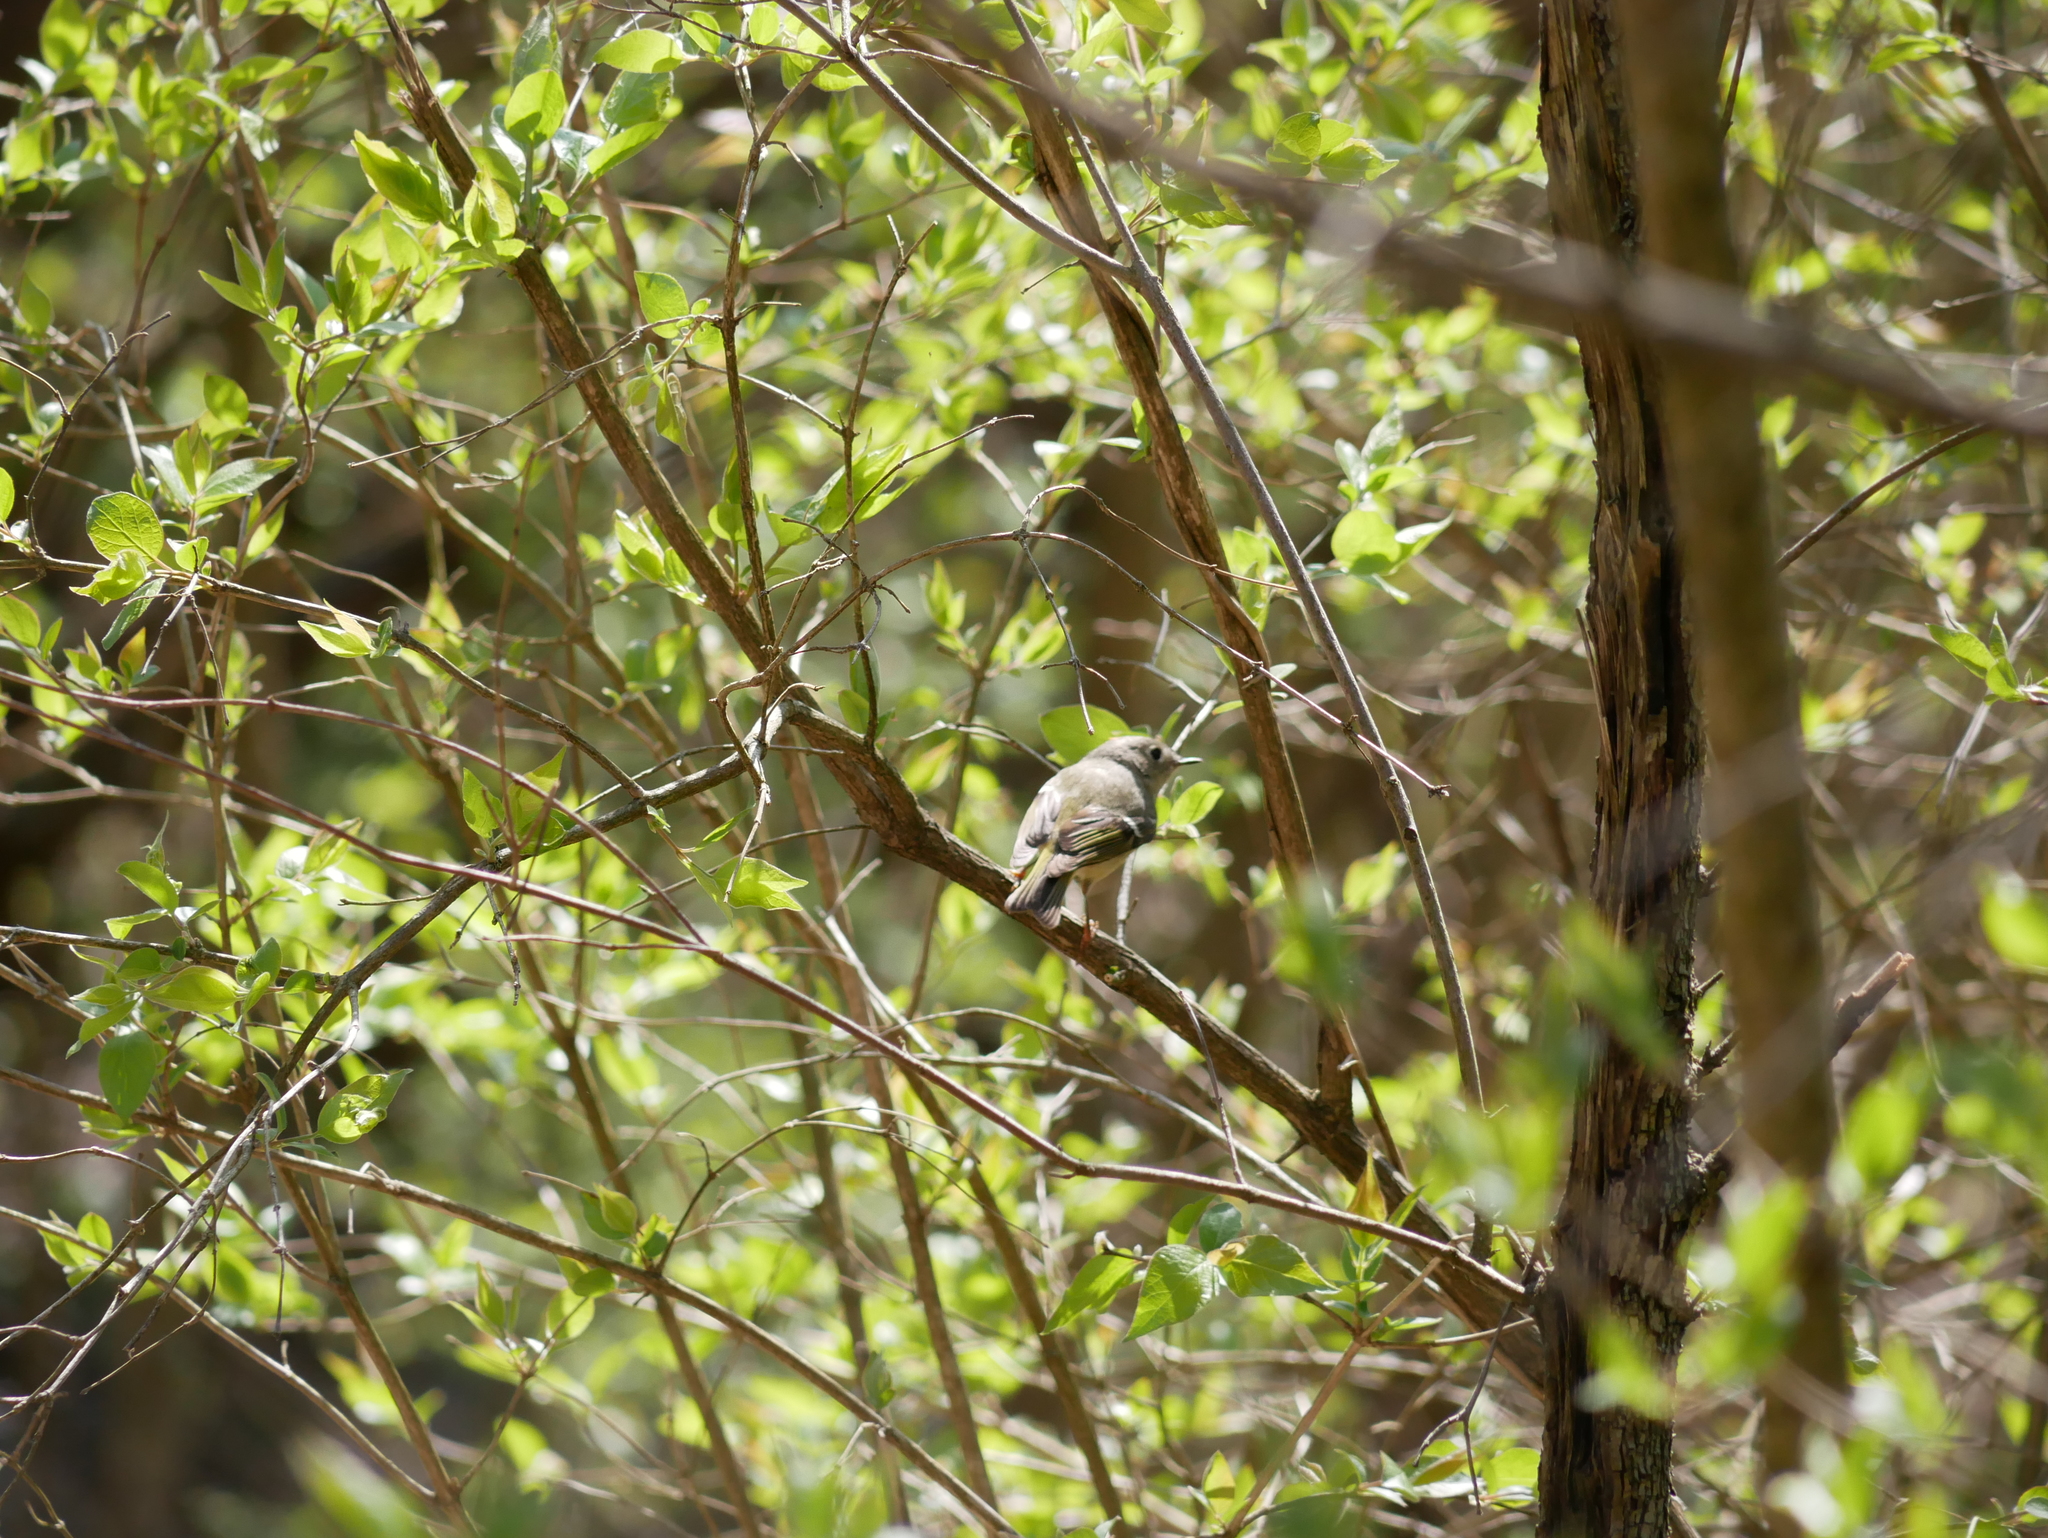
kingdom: Animalia
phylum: Chordata
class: Aves
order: Passeriformes
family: Regulidae
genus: Regulus
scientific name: Regulus calendula
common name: Ruby-crowned kinglet
